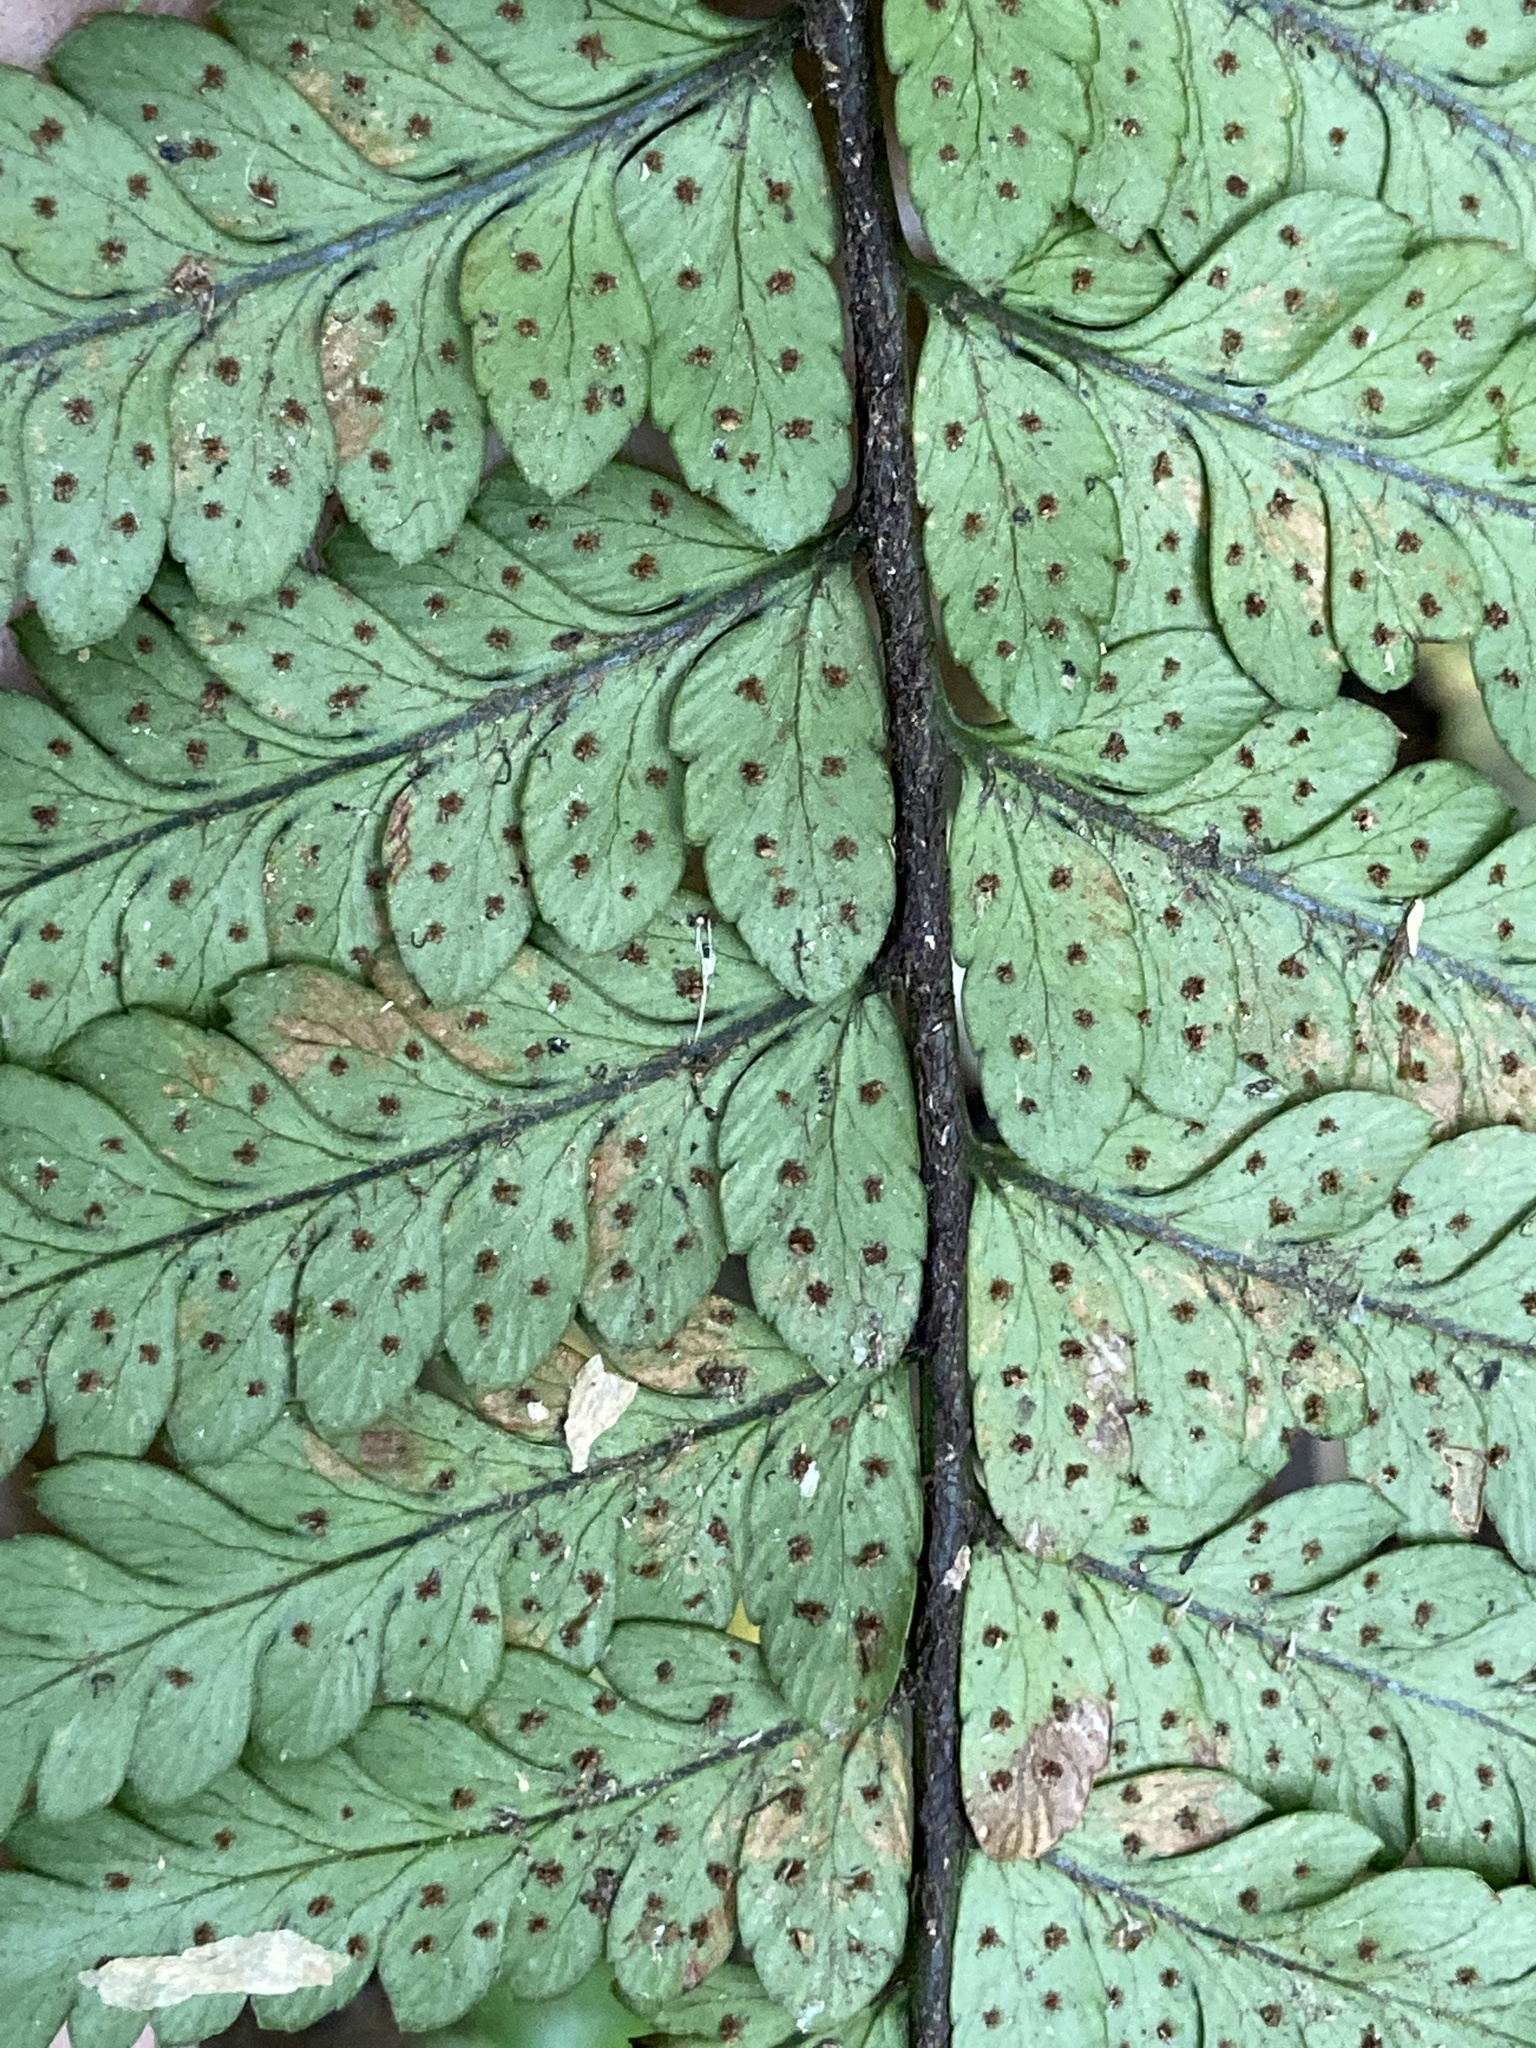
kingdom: Plantae
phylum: Tracheophyta
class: Polypodiopsida
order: Polypodiales
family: Dryopteridaceae
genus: Polystichum
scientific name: Polystichum wawranum
